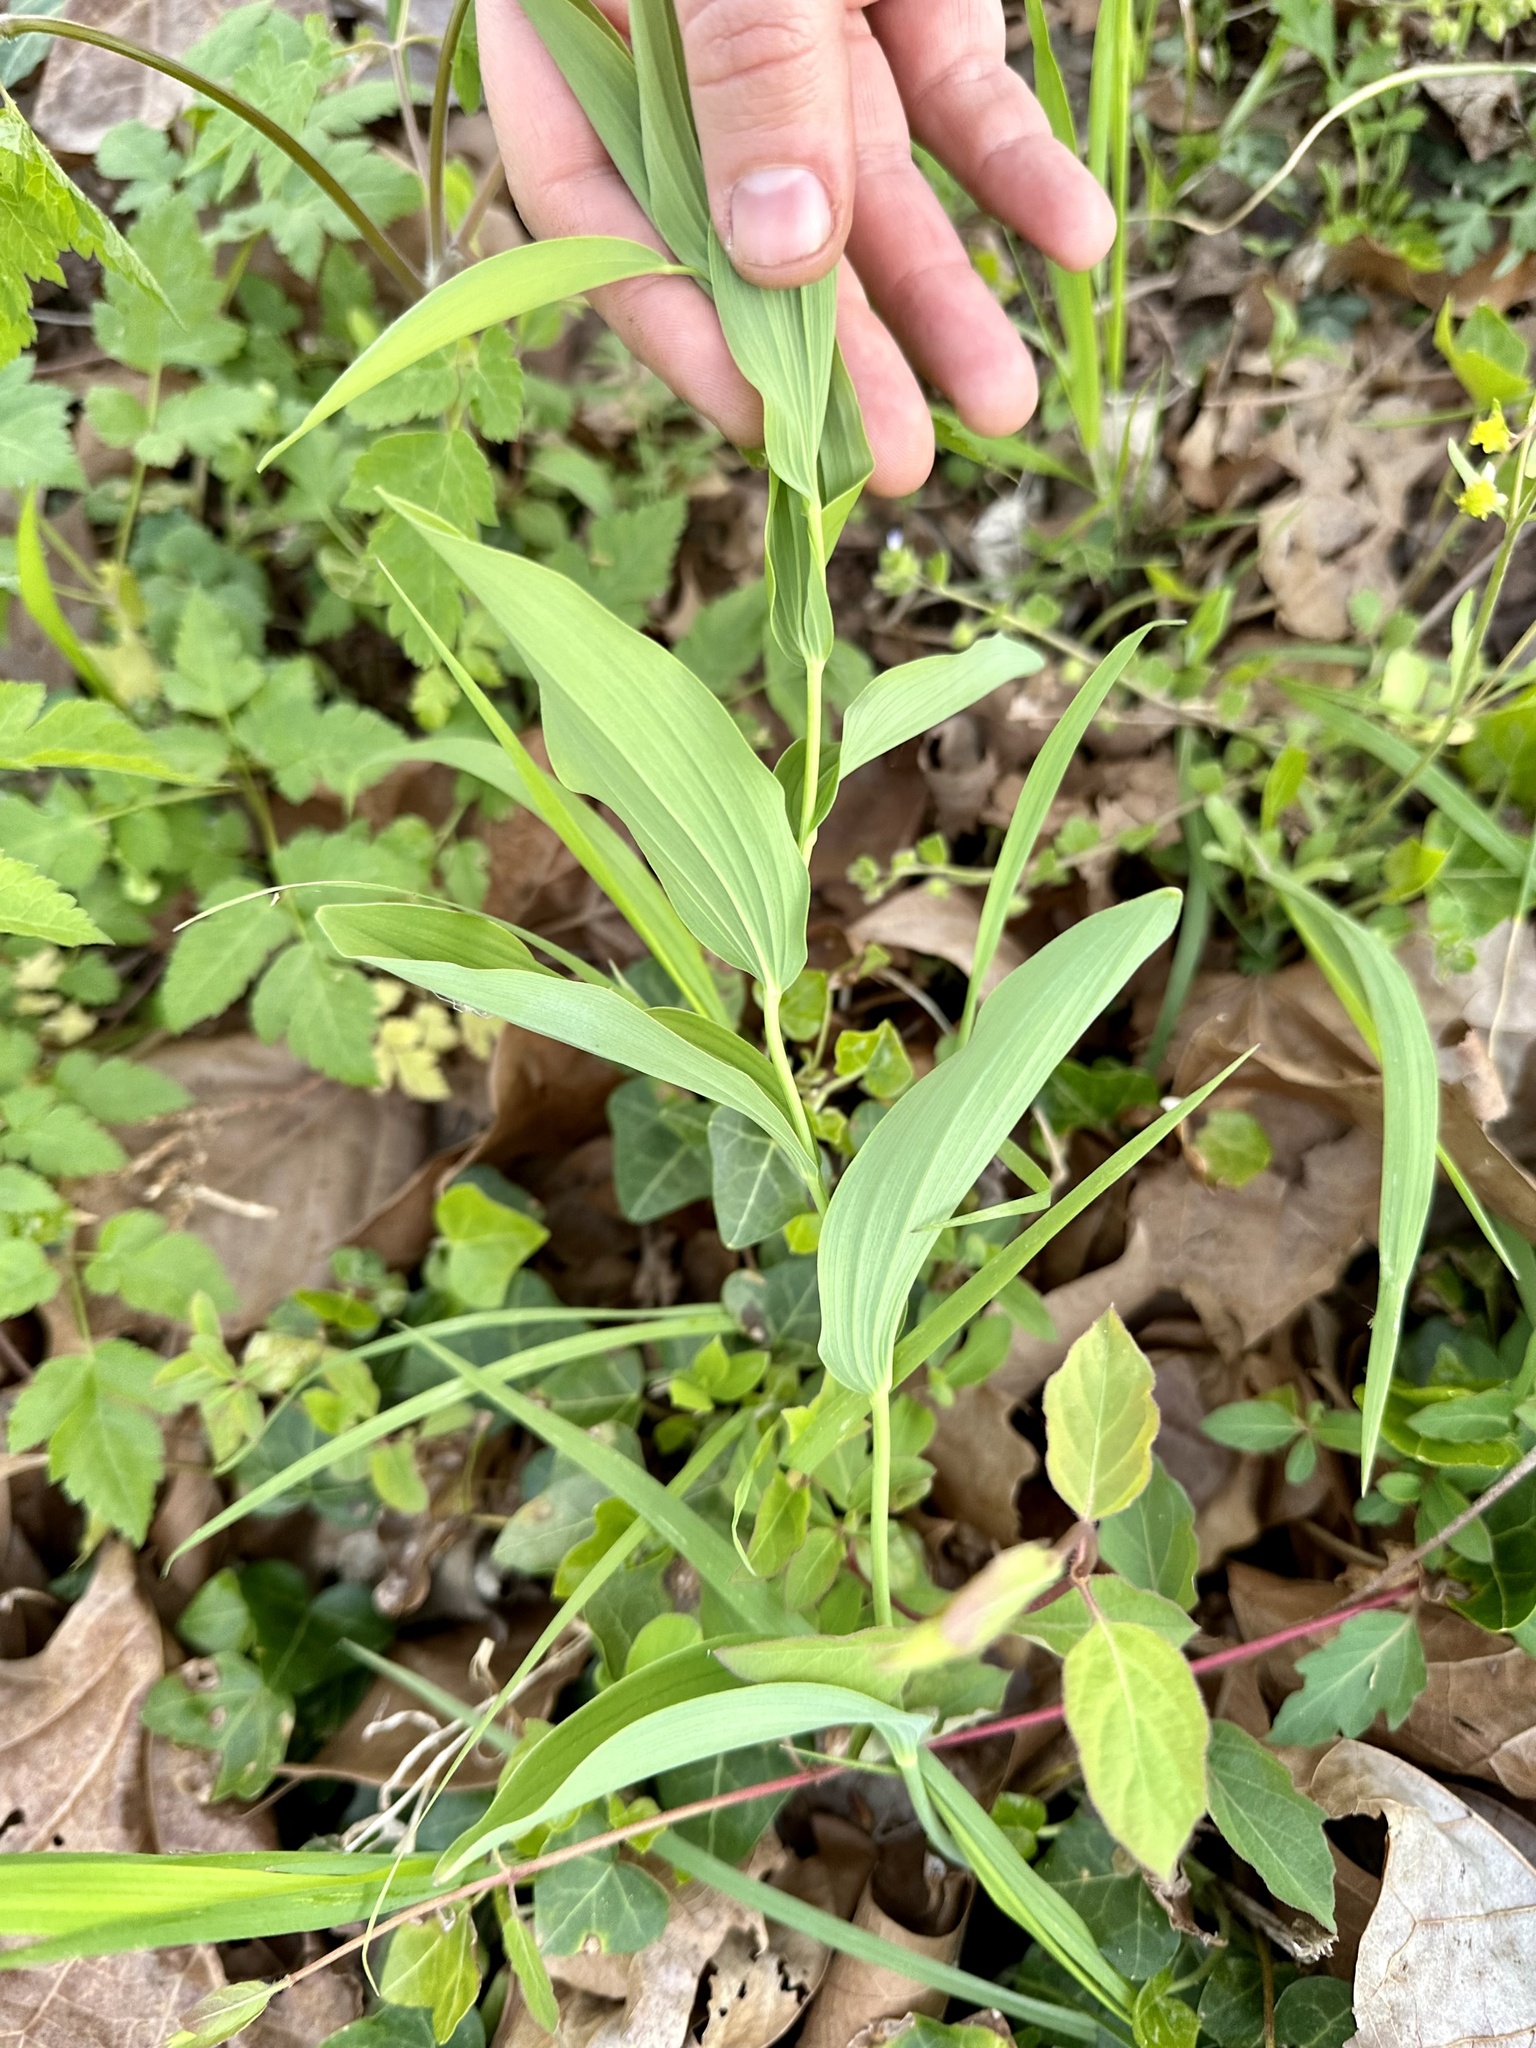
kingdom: Plantae
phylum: Tracheophyta
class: Liliopsida
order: Asparagales
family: Asparagaceae
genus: Polygonatum
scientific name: Polygonatum biflorum
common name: American solomon's-seal
